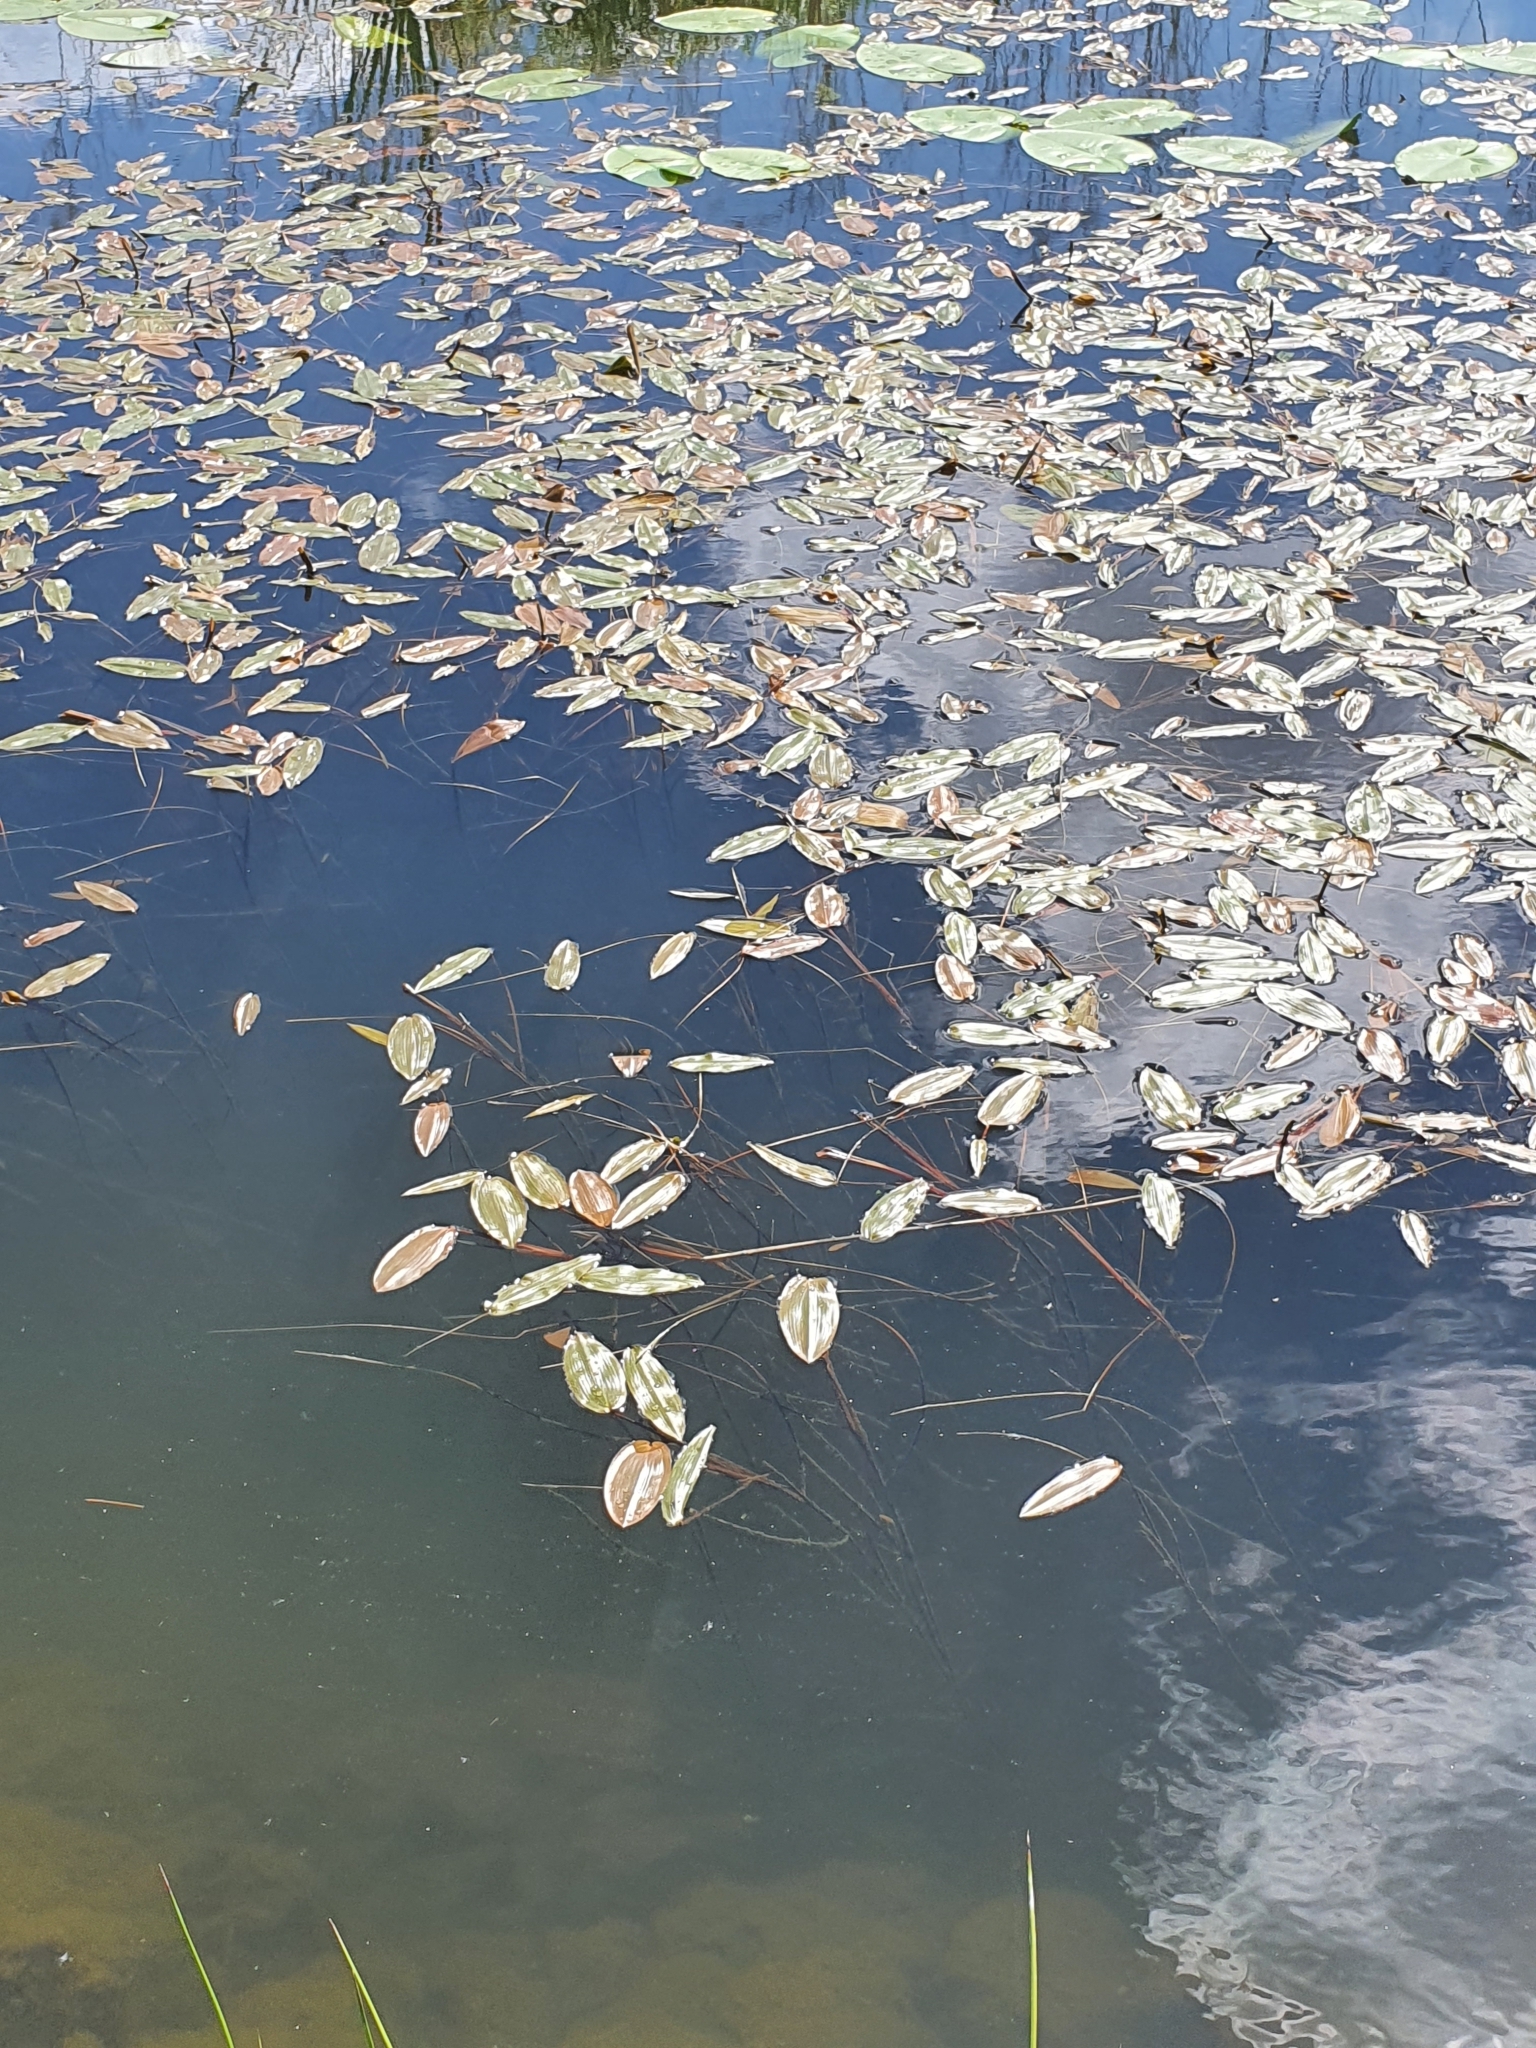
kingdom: Plantae
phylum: Tracheophyta
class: Liliopsida
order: Alismatales
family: Potamogetonaceae
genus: Potamogeton
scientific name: Potamogeton natans
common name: Broad-leaved pondweed
